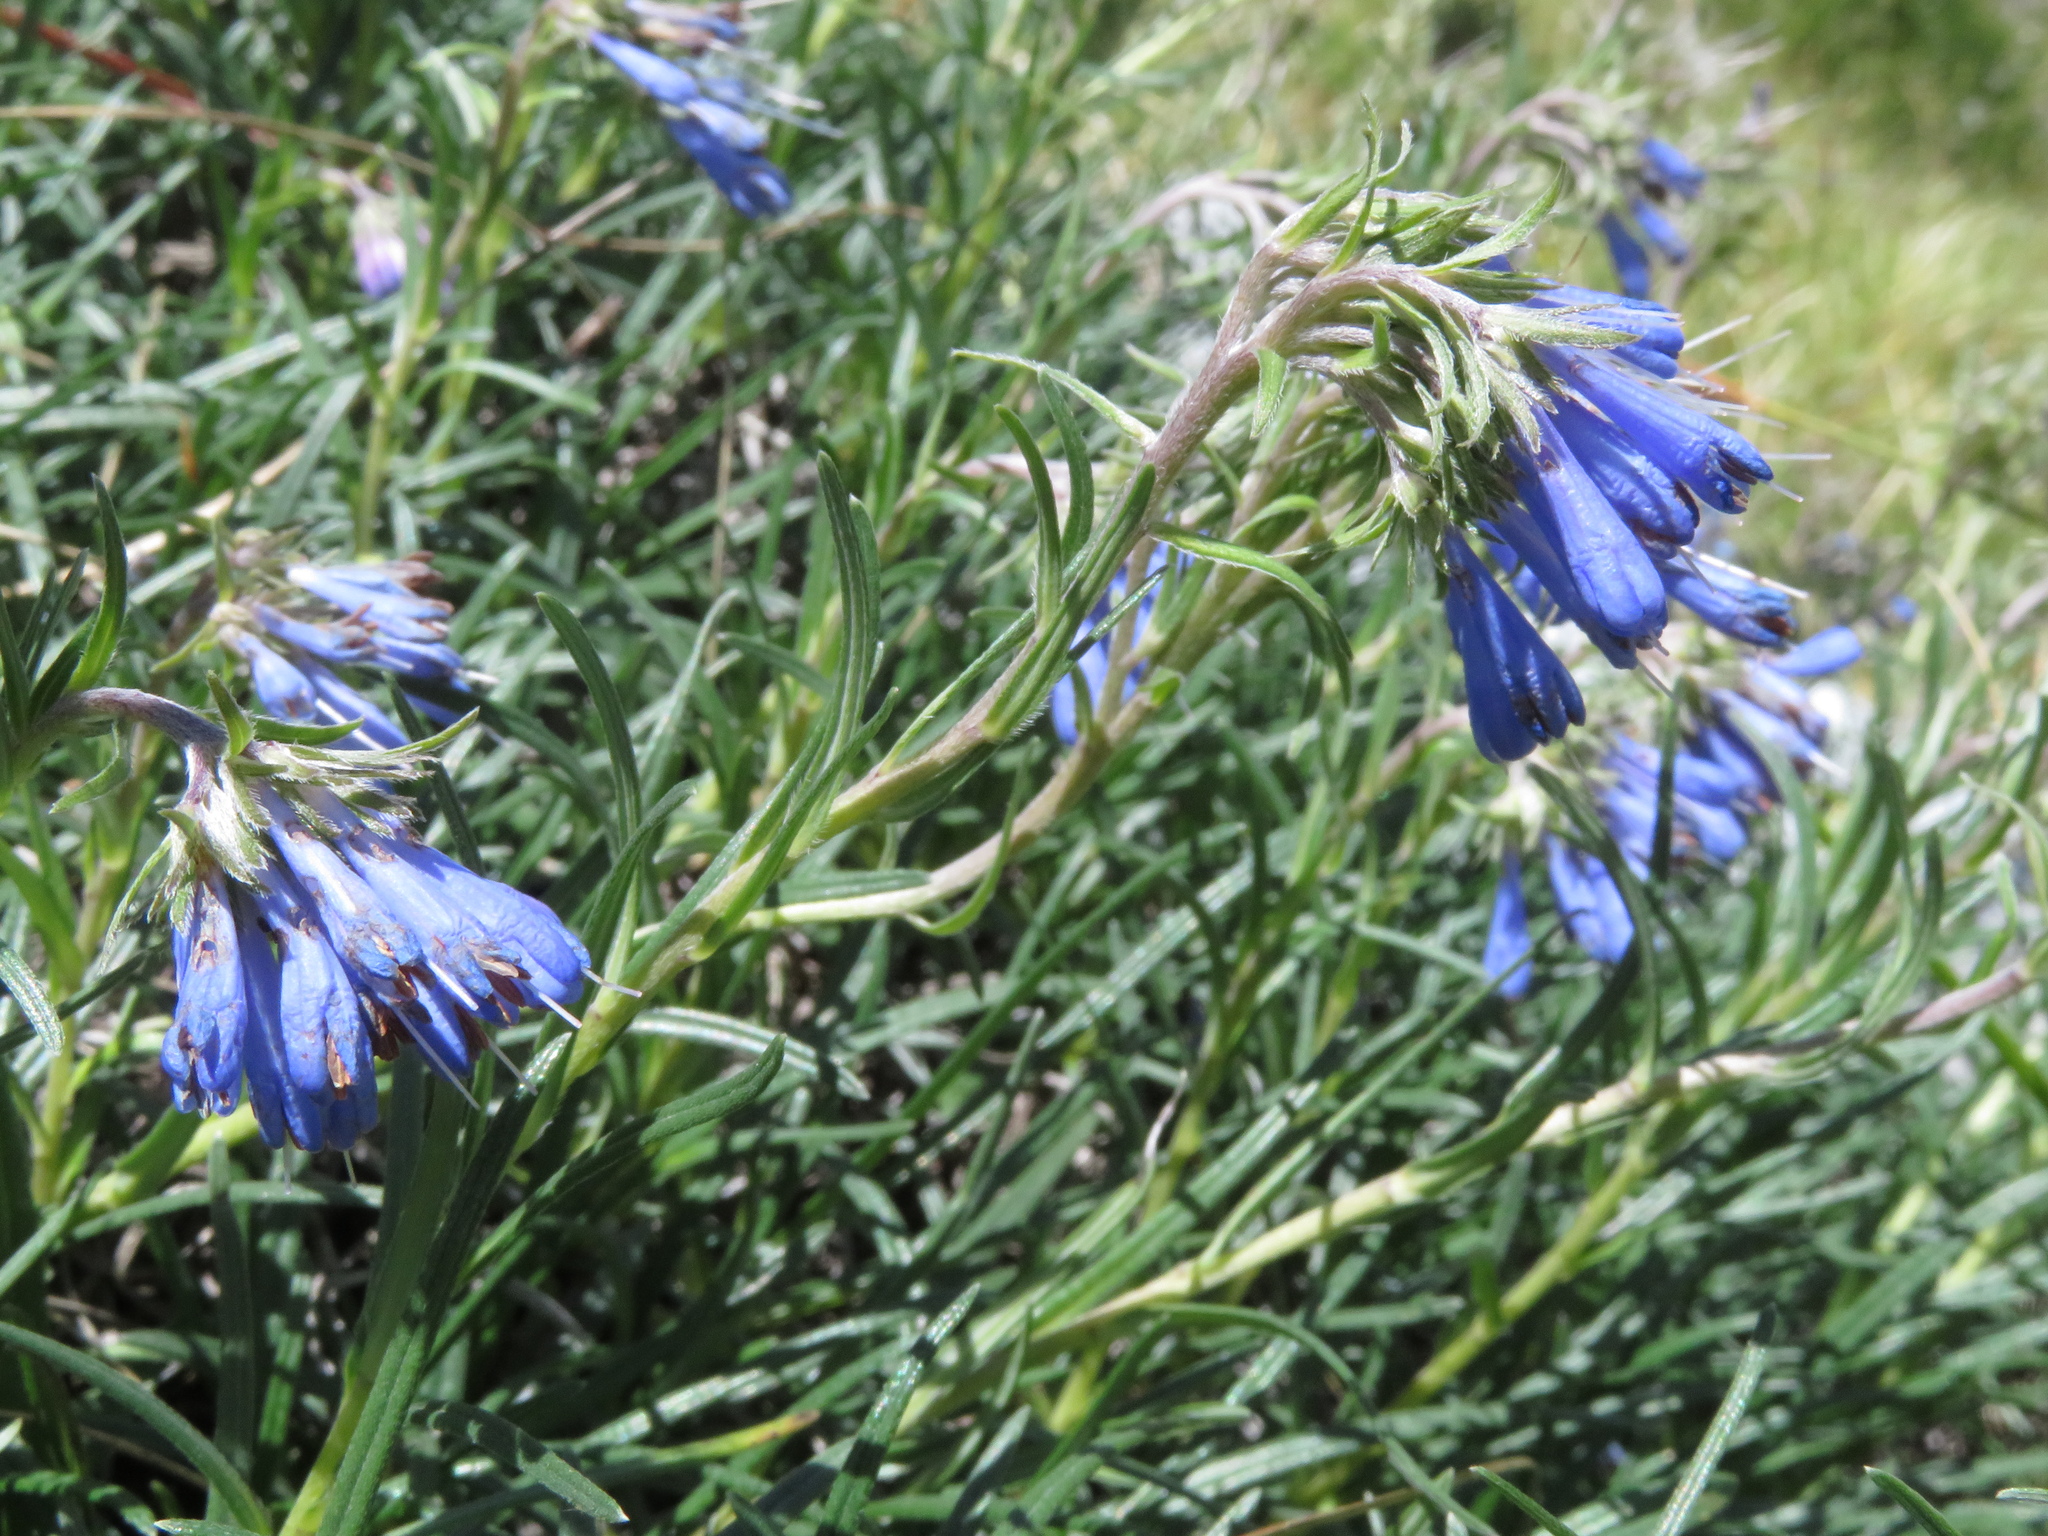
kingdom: Plantae
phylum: Tracheophyta
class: Magnoliopsida
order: Boraginales
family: Boraginaceae
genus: Moltkia
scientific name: Moltkia suffruticosa
